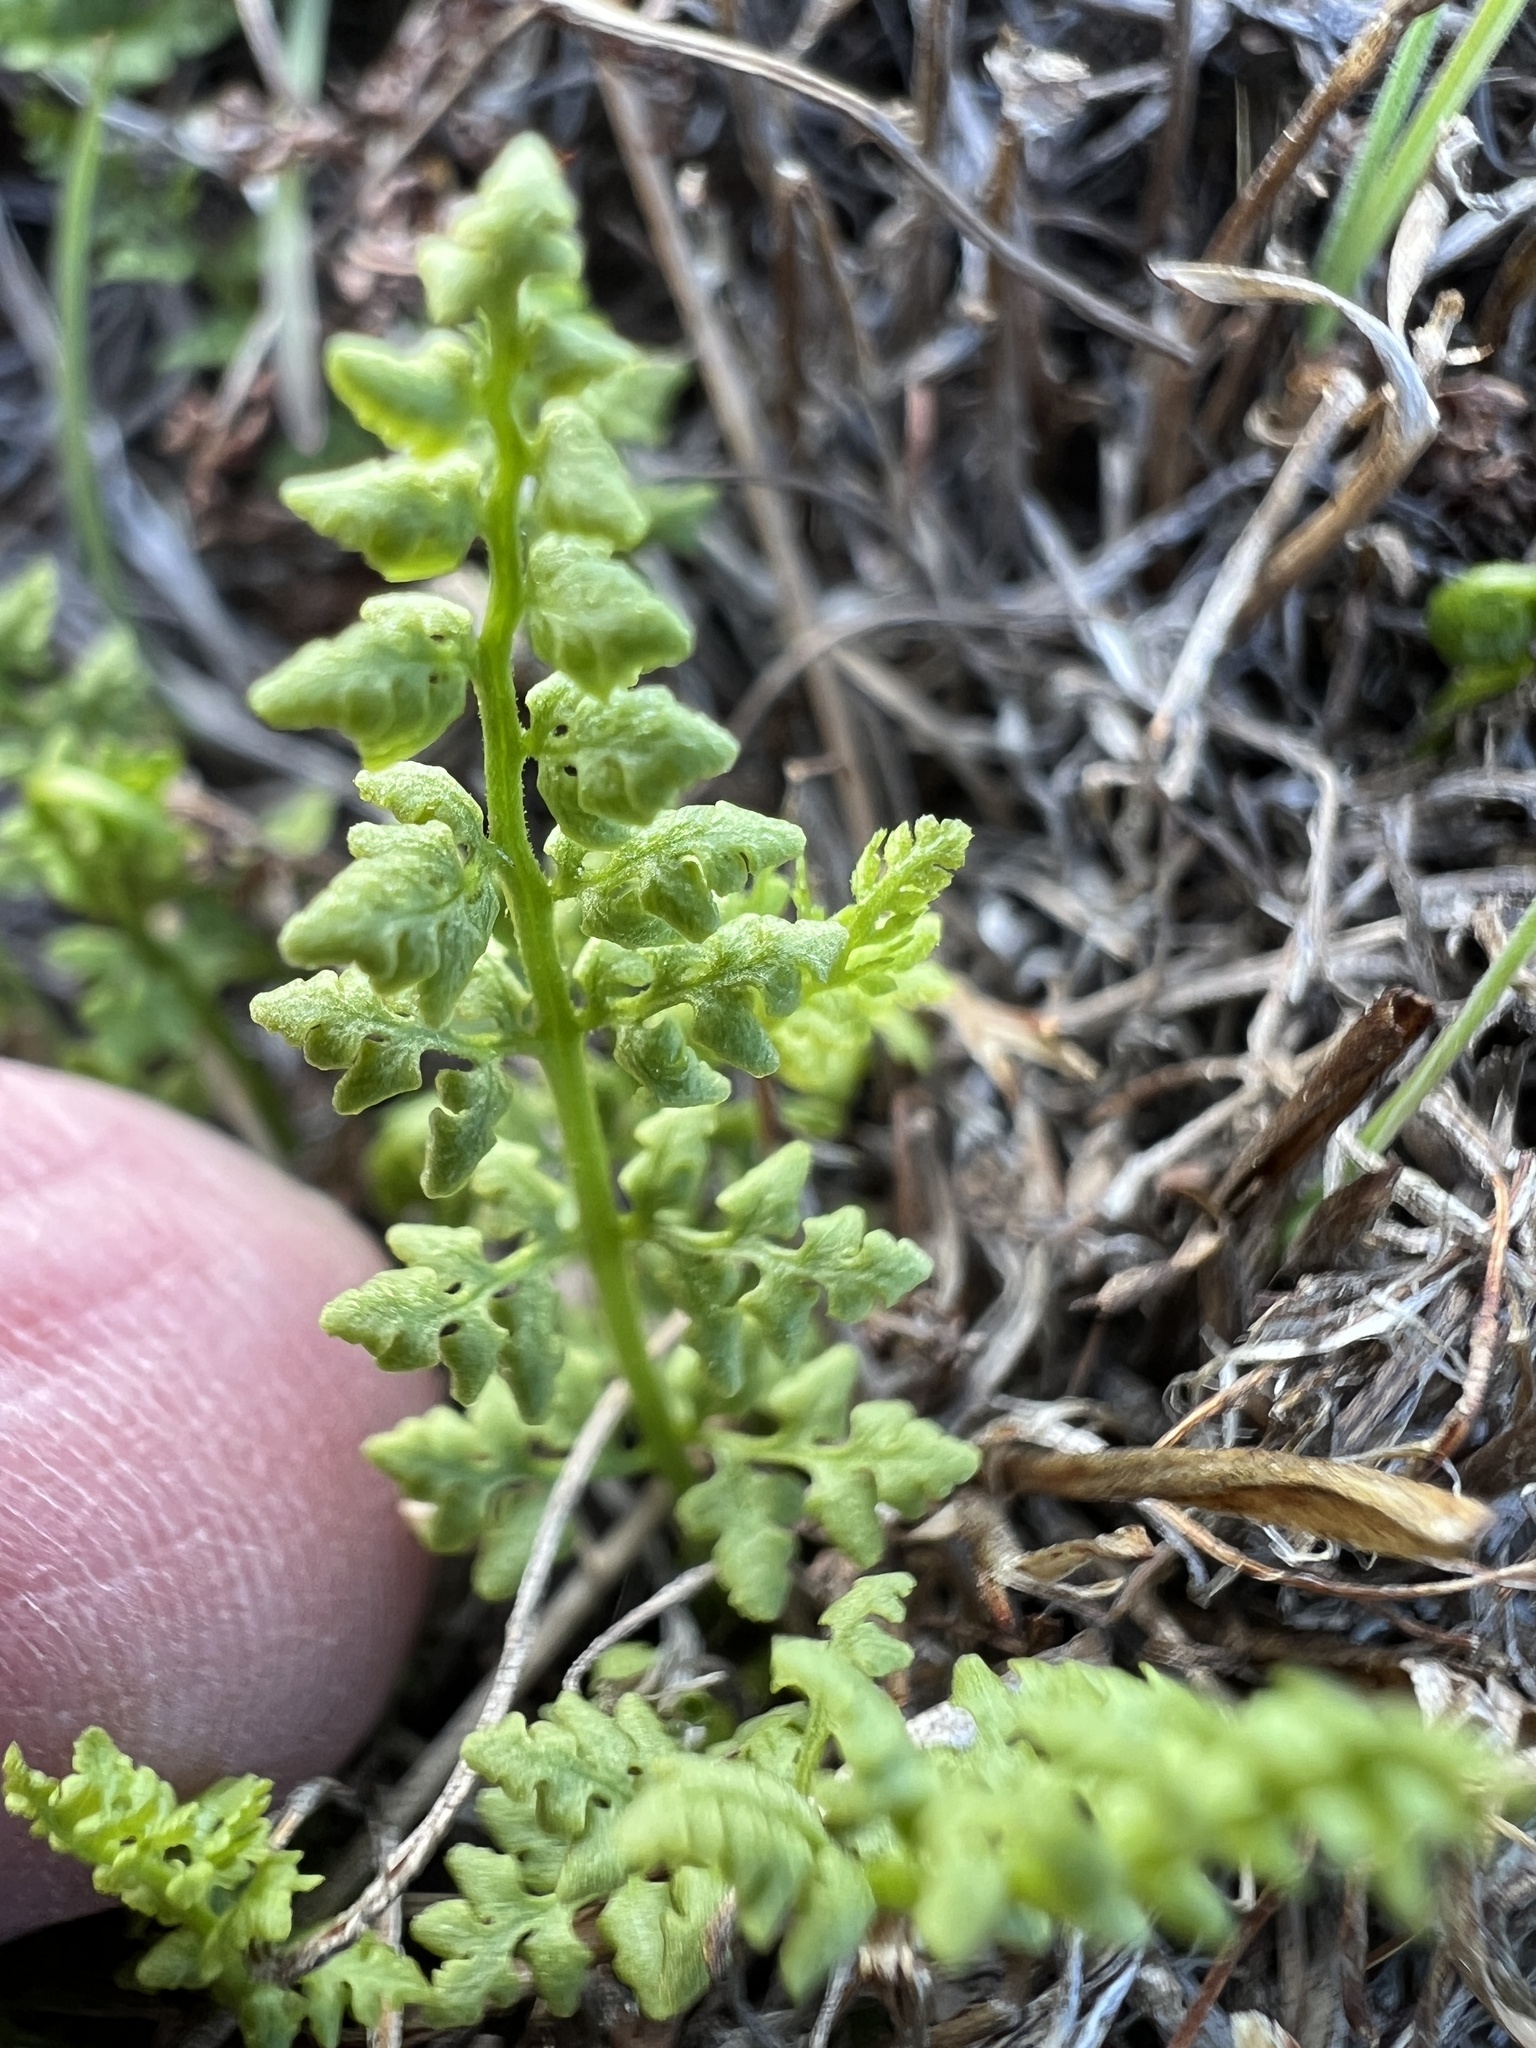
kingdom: Plantae
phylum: Tracheophyta
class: Polypodiopsida
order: Polypodiales
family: Woodsiaceae
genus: Physematium
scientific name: Physematium oreganum
